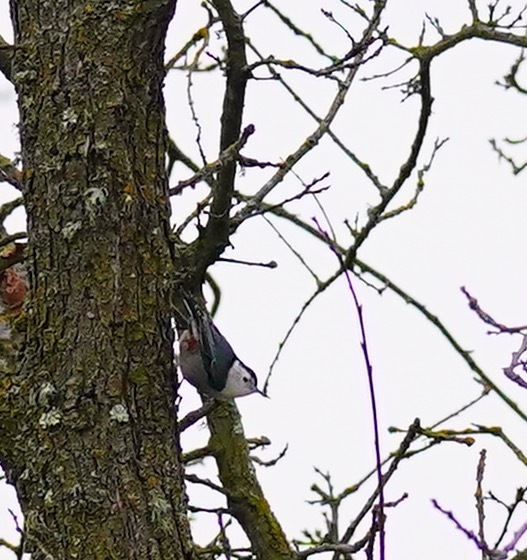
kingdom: Animalia
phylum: Chordata
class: Aves
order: Passeriformes
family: Sittidae
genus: Sitta
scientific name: Sitta carolinensis
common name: White-breasted nuthatch
